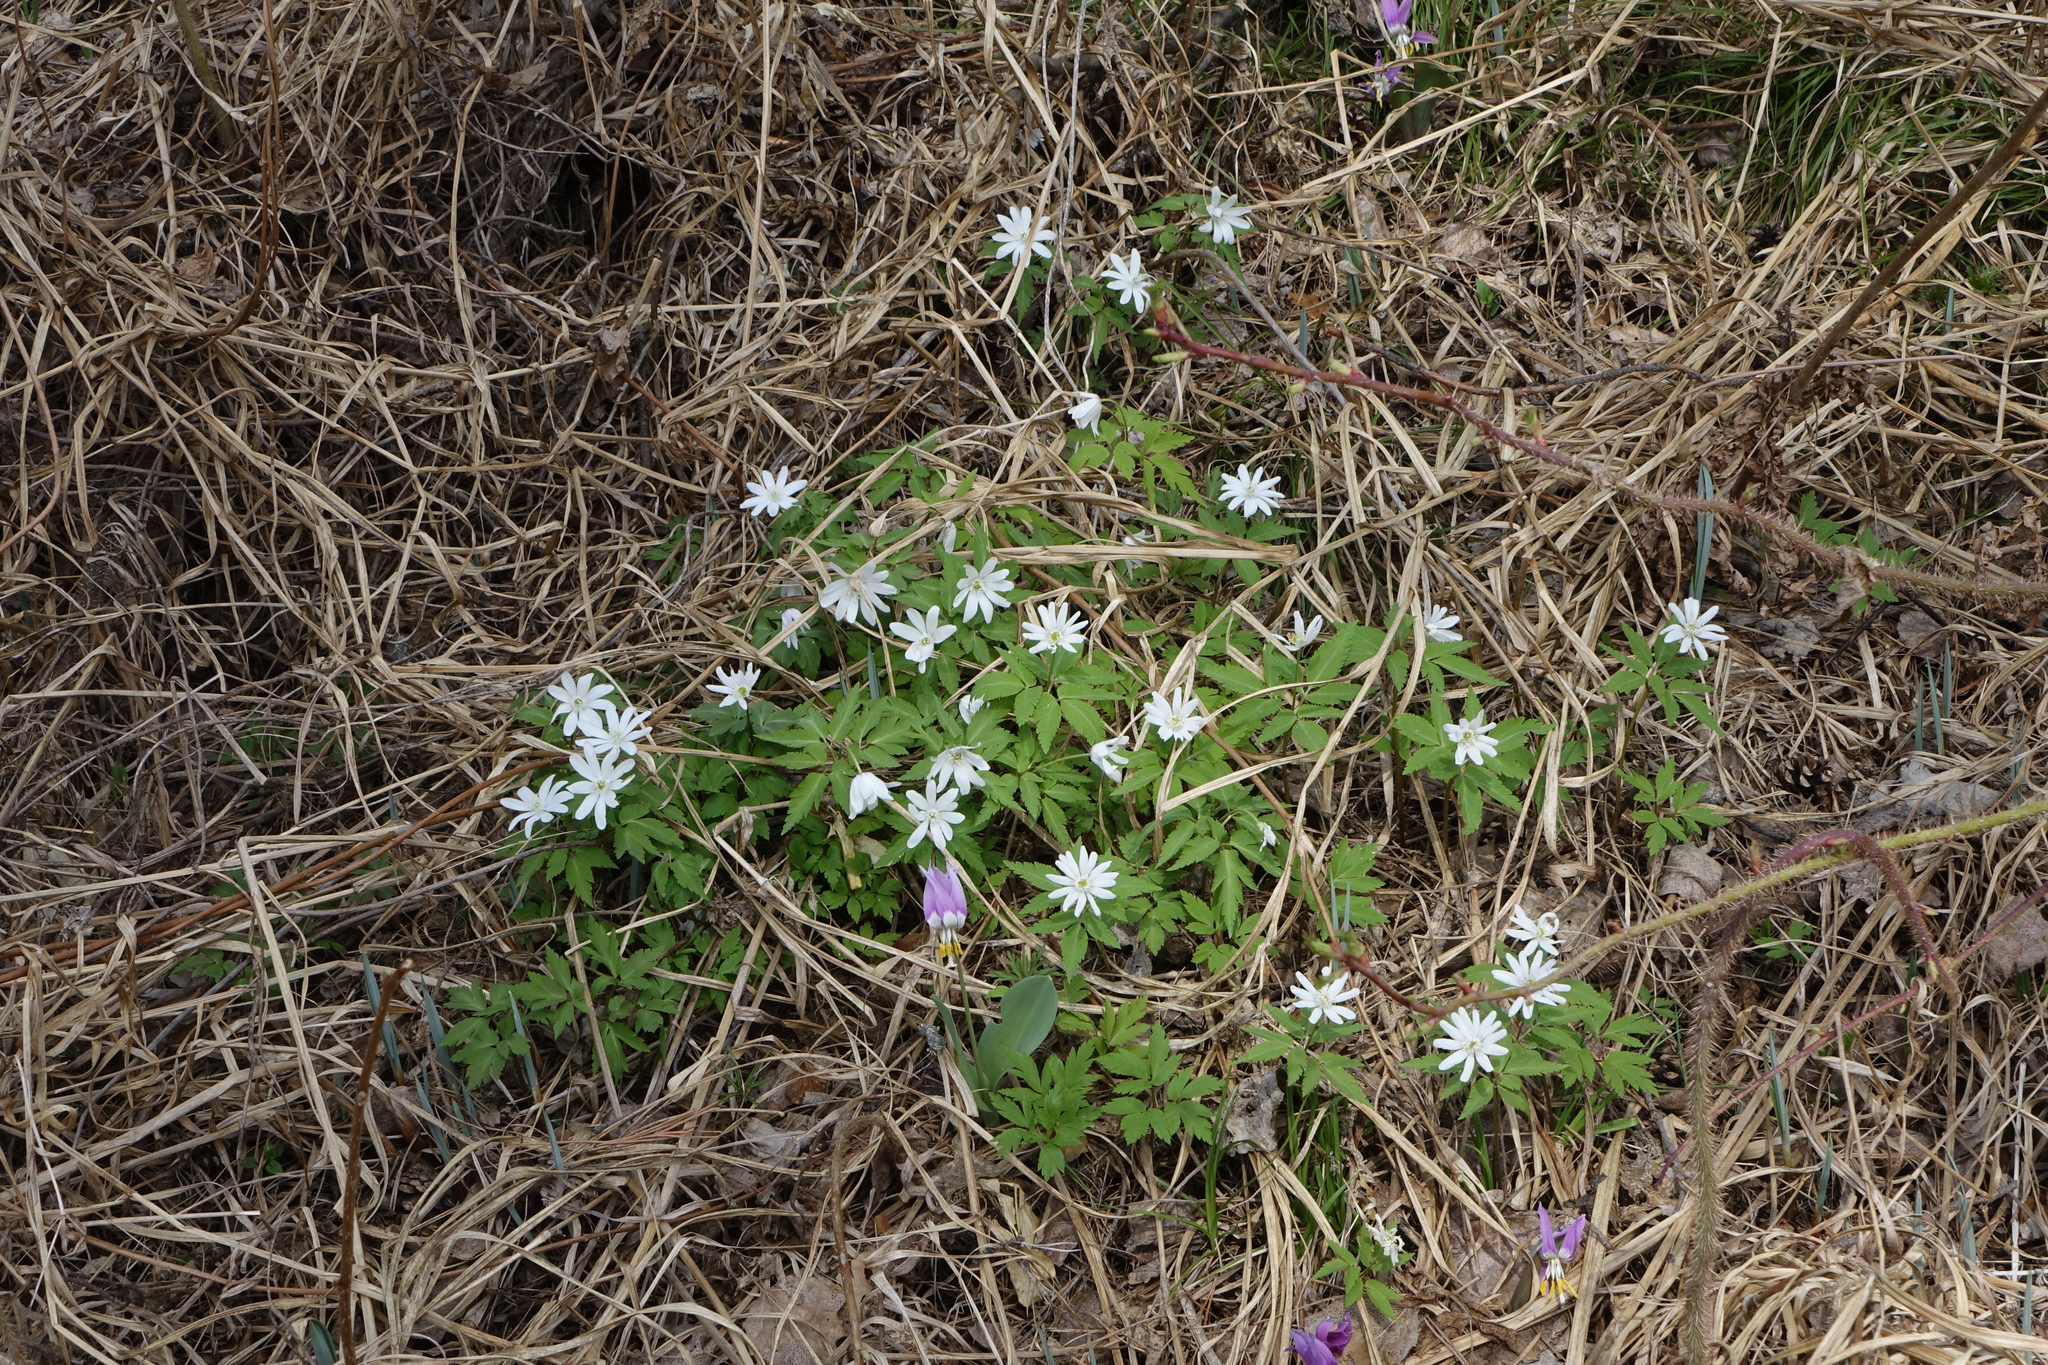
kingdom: Plantae
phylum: Tracheophyta
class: Magnoliopsida
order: Ranunculales
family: Ranunculaceae
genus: Anemone
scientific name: Anemone altaica
